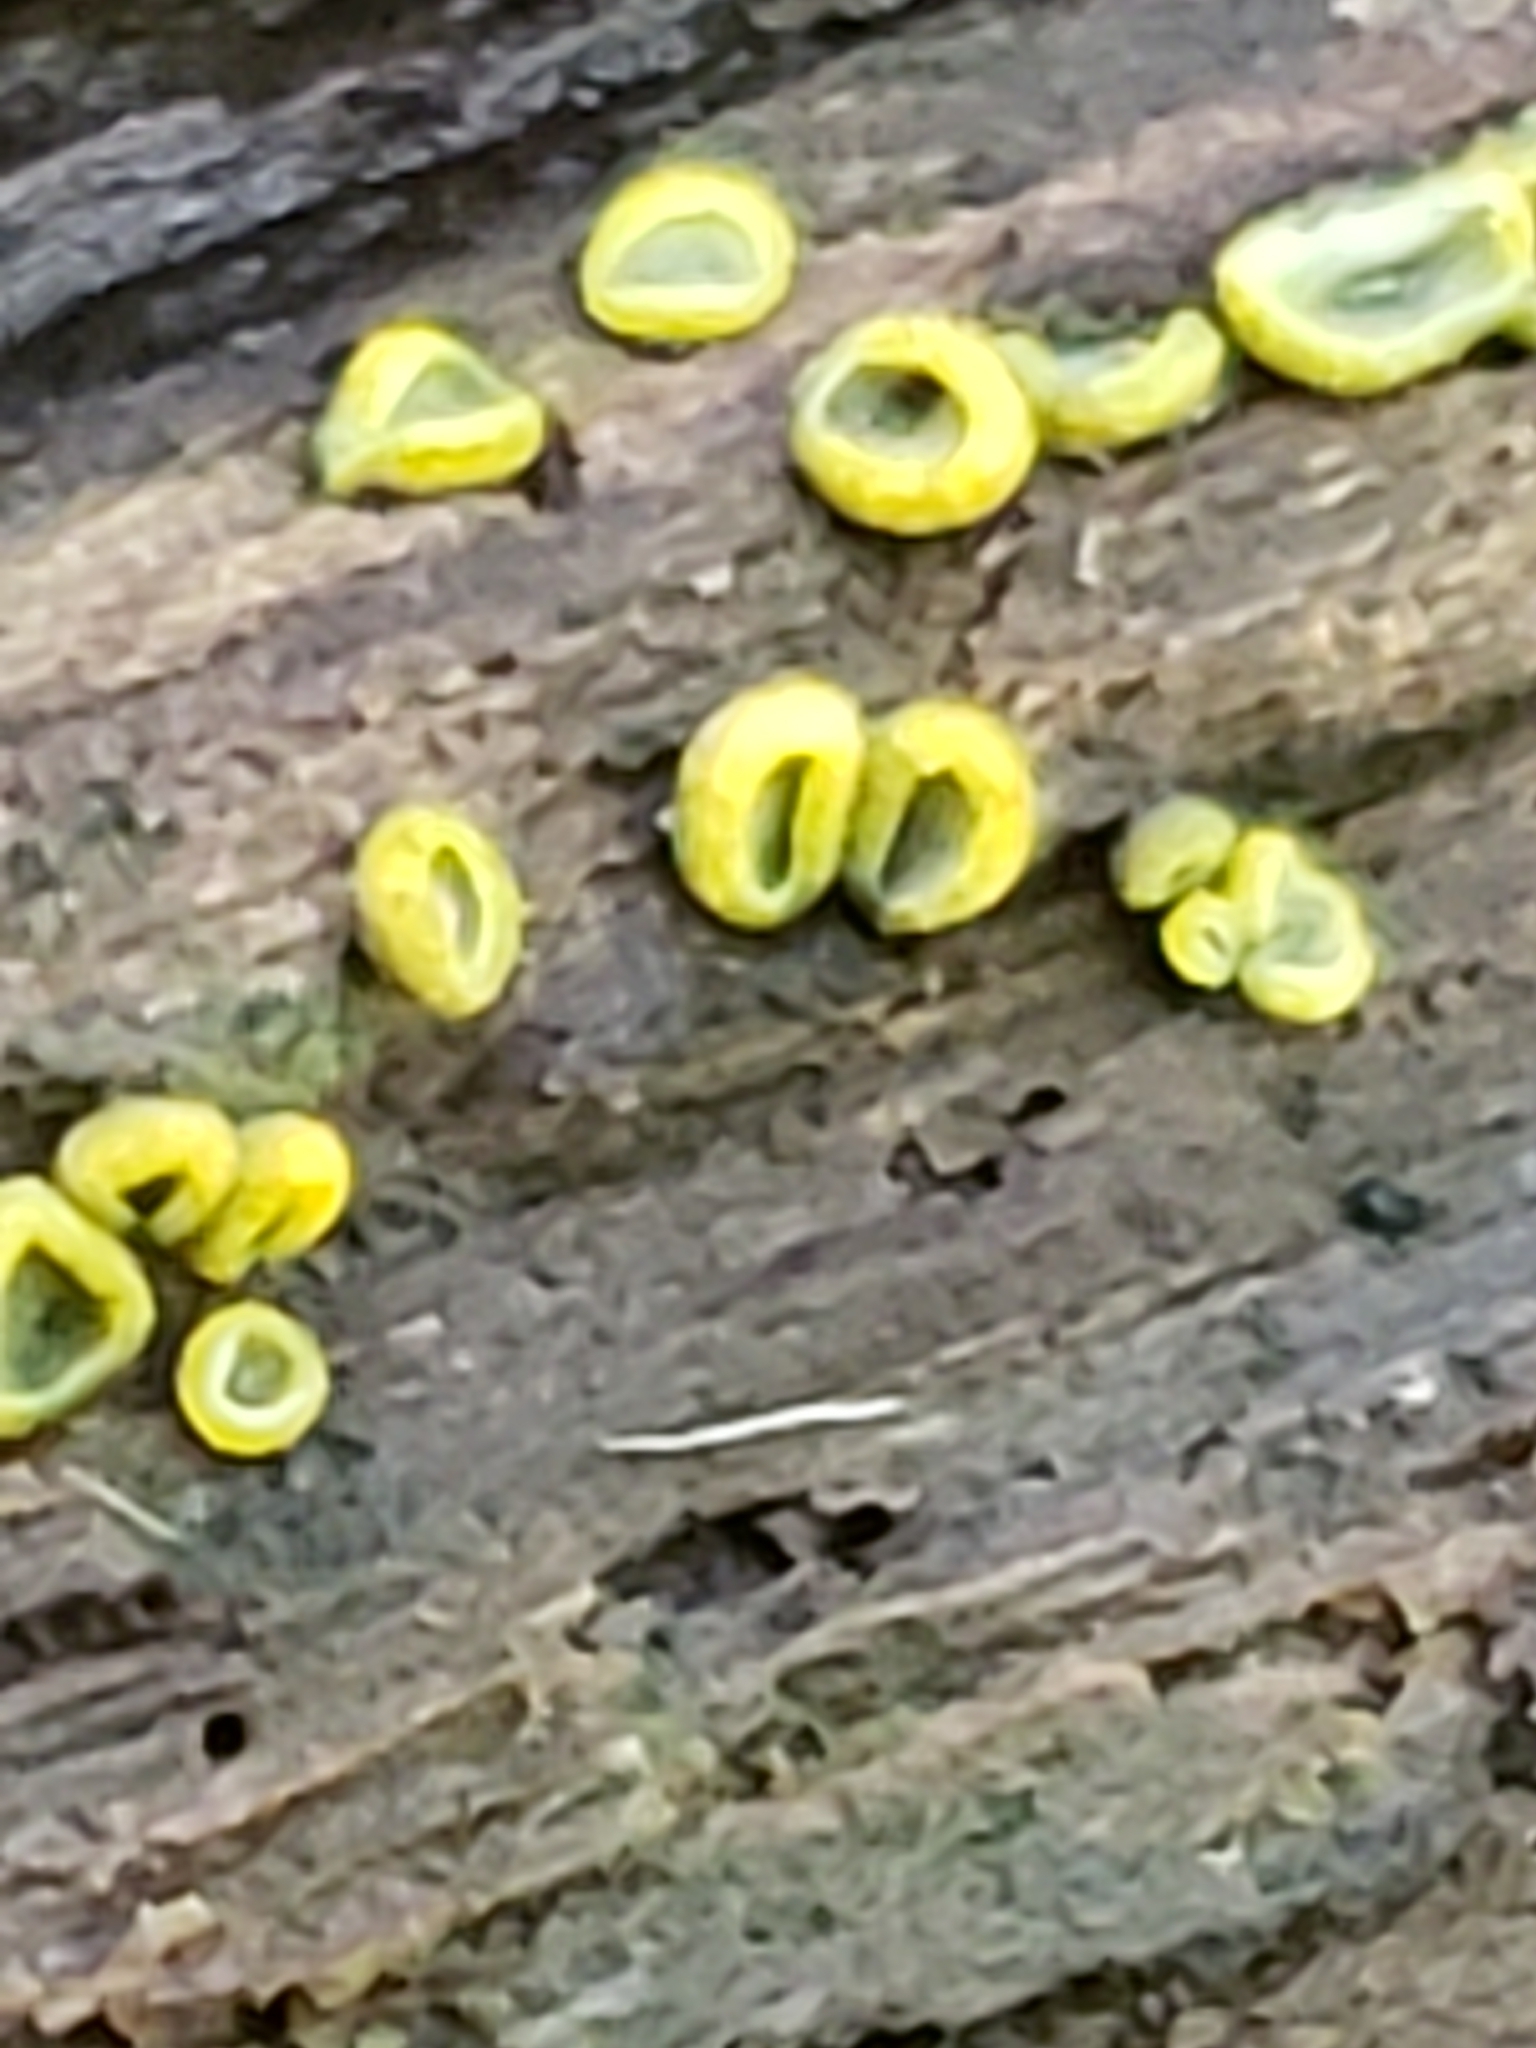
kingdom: Fungi
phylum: Ascomycota
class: Leotiomycetes
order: Helotiales
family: Chlorospleniaceae
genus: Chlorosplenium
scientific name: Chlorosplenium chlora
